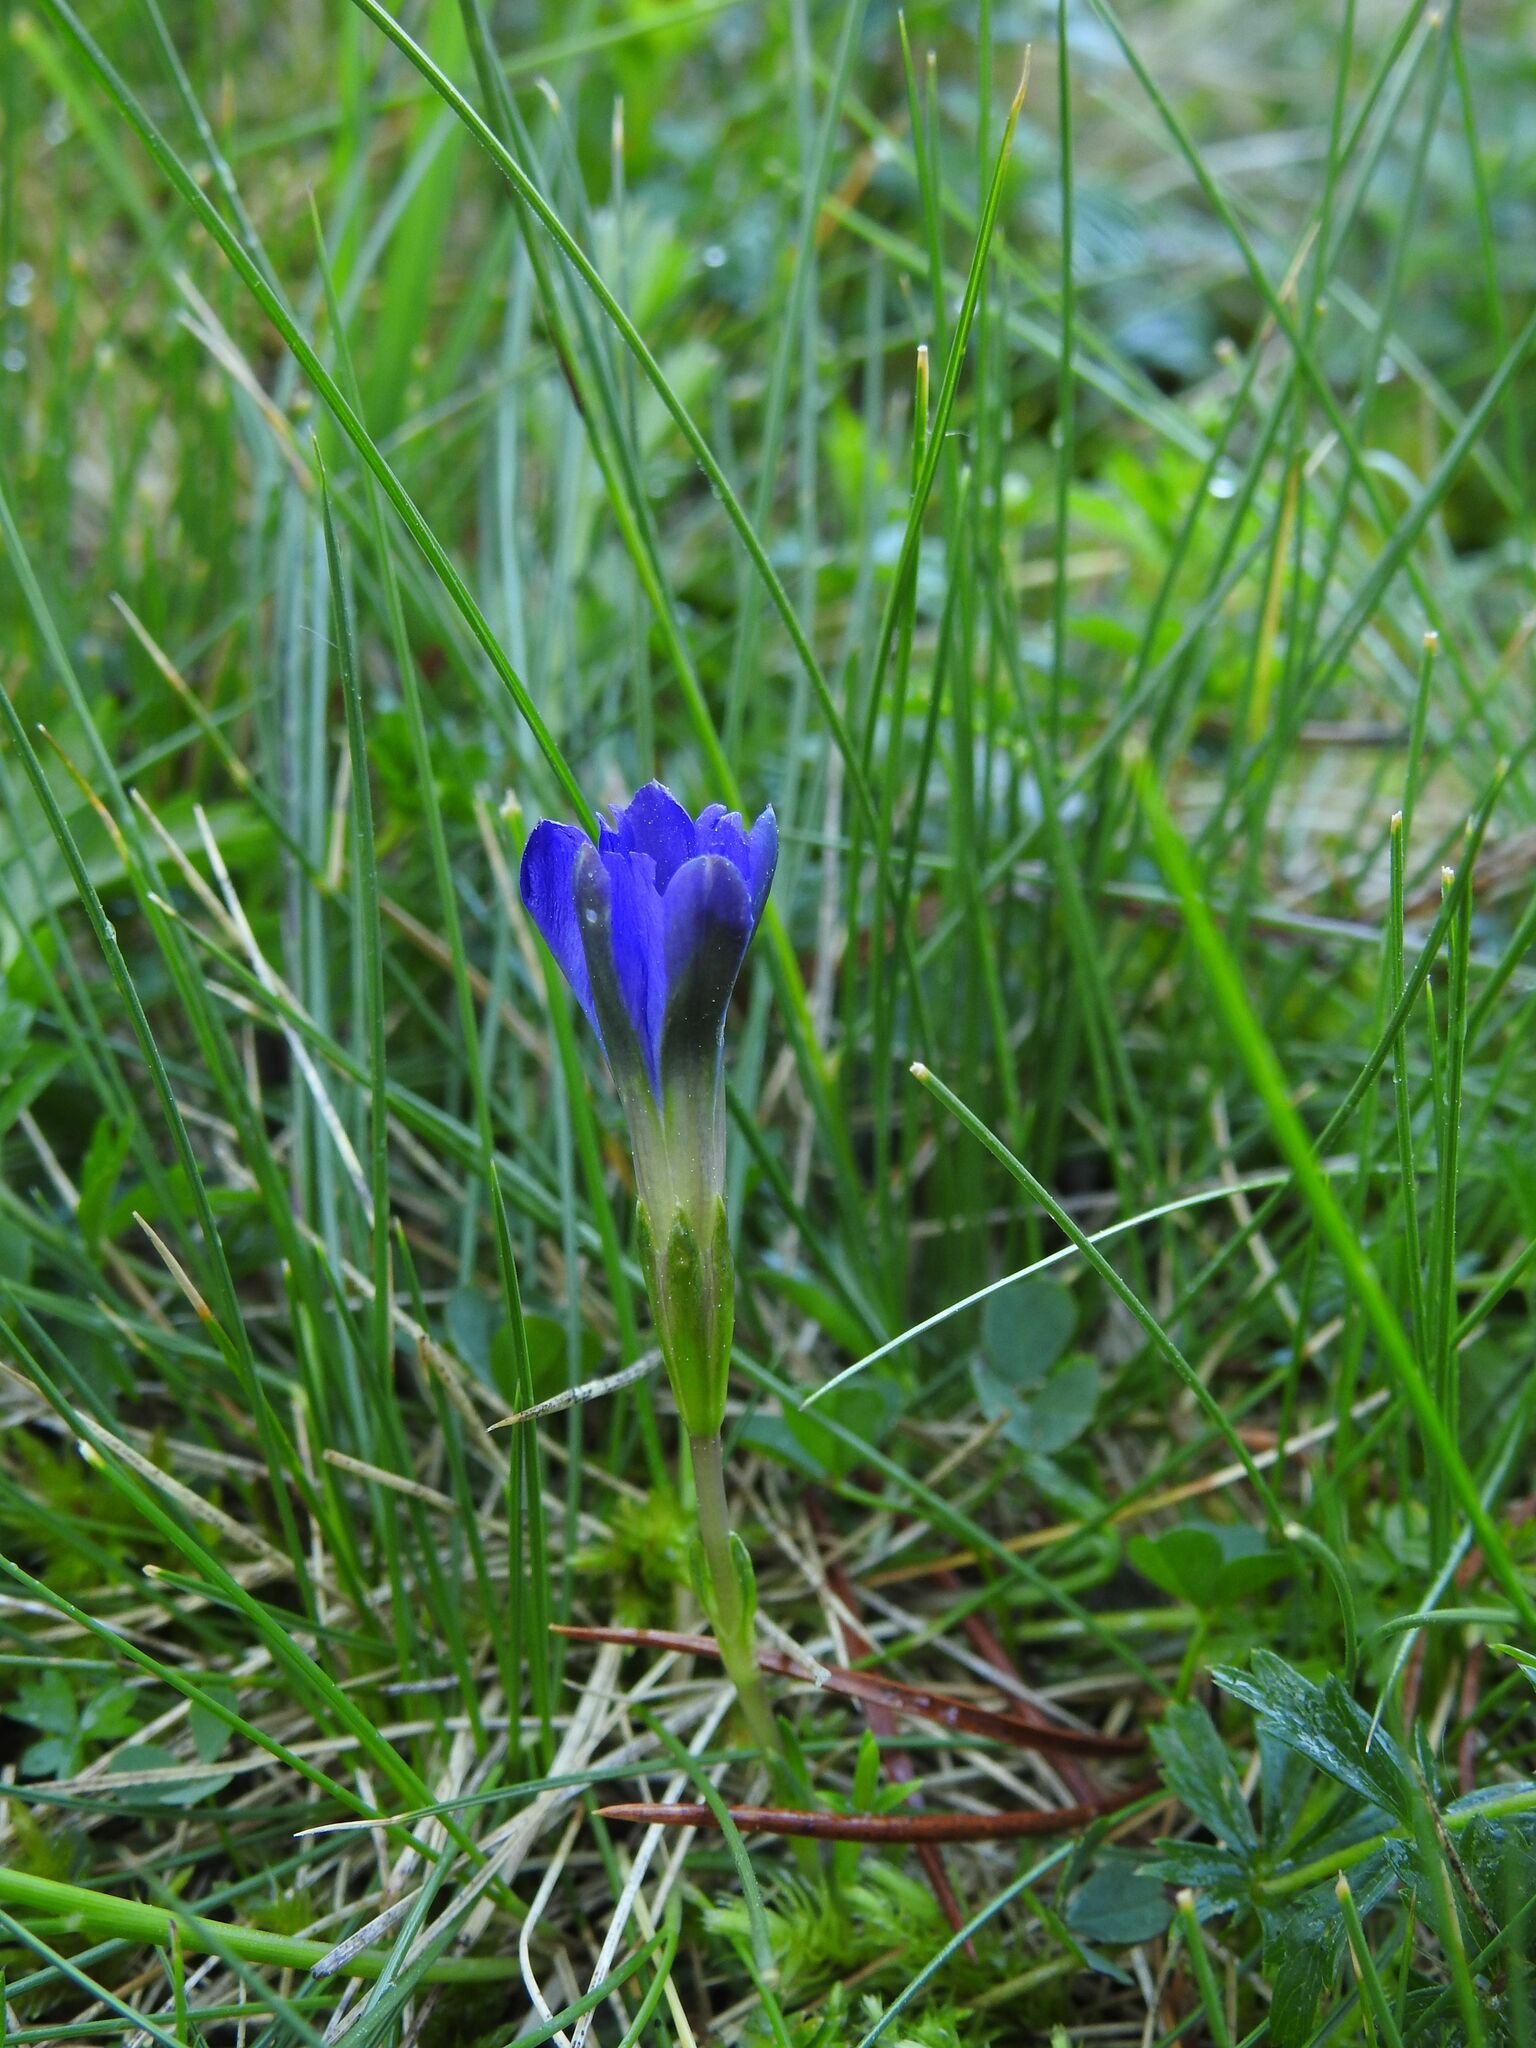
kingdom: Plantae
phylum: Tracheophyta
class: Magnoliopsida
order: Gentianales
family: Gentianaceae
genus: Gentiana
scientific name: Gentiana pyrenaica
